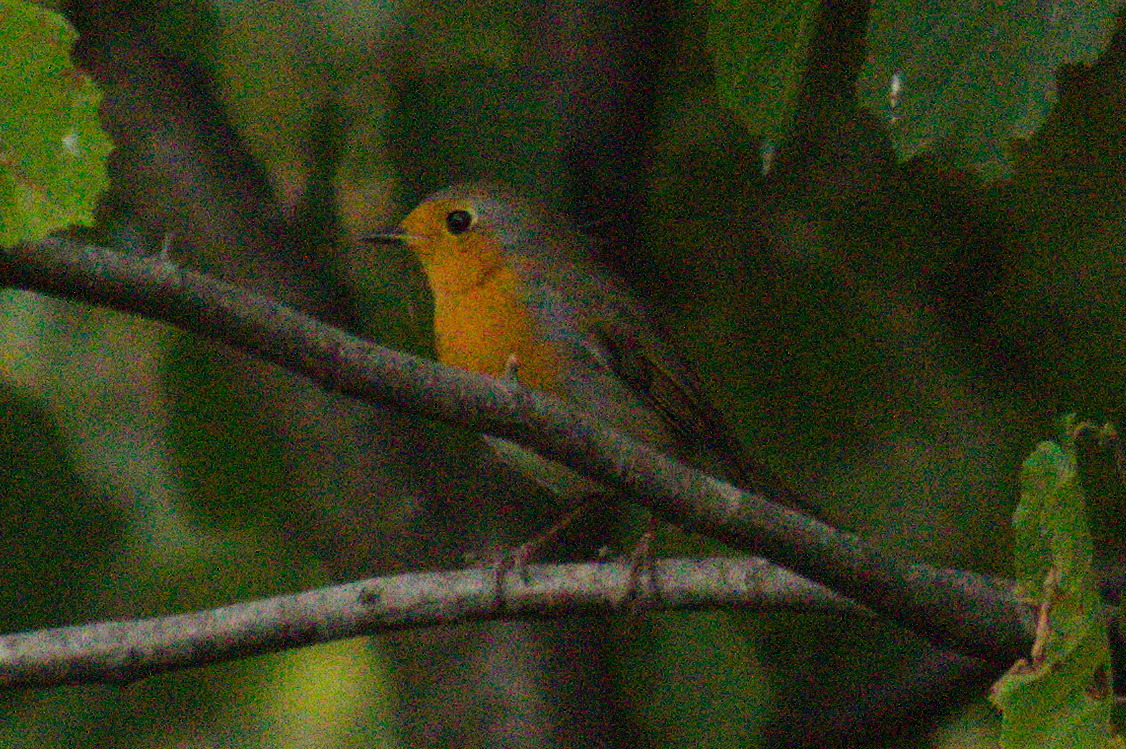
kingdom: Animalia
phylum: Chordata
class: Aves
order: Passeriformes
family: Muscicapidae
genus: Erithacus
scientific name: Erithacus rubecula
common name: European robin
